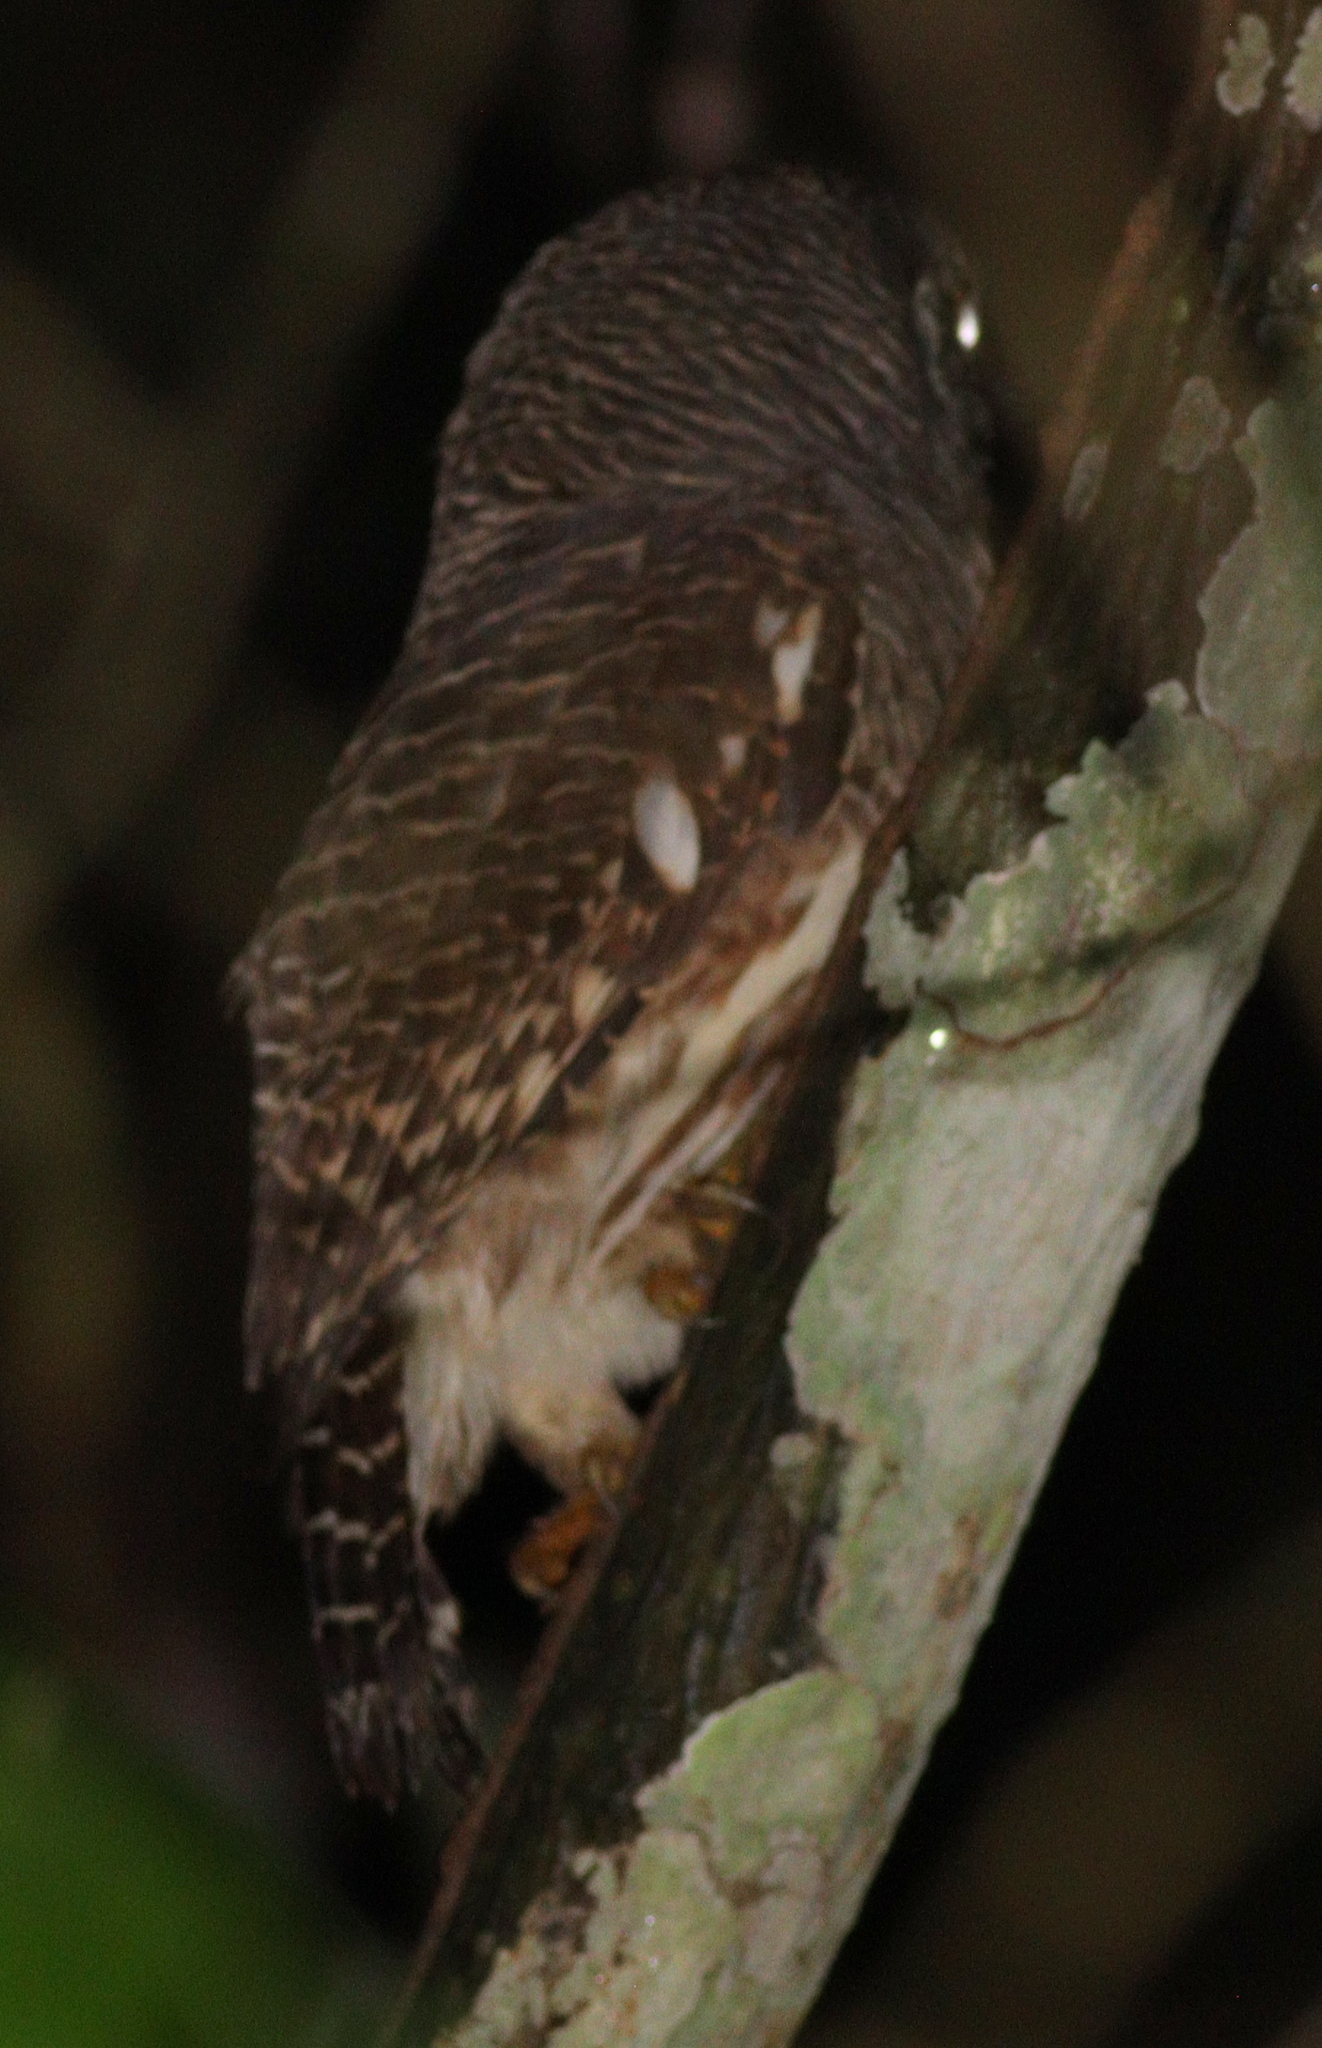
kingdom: Animalia
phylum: Chordata
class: Aves
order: Strigiformes
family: Strigidae
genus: Glaucidium
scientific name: Glaucidium cuculoides
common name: Asian barred owlet
